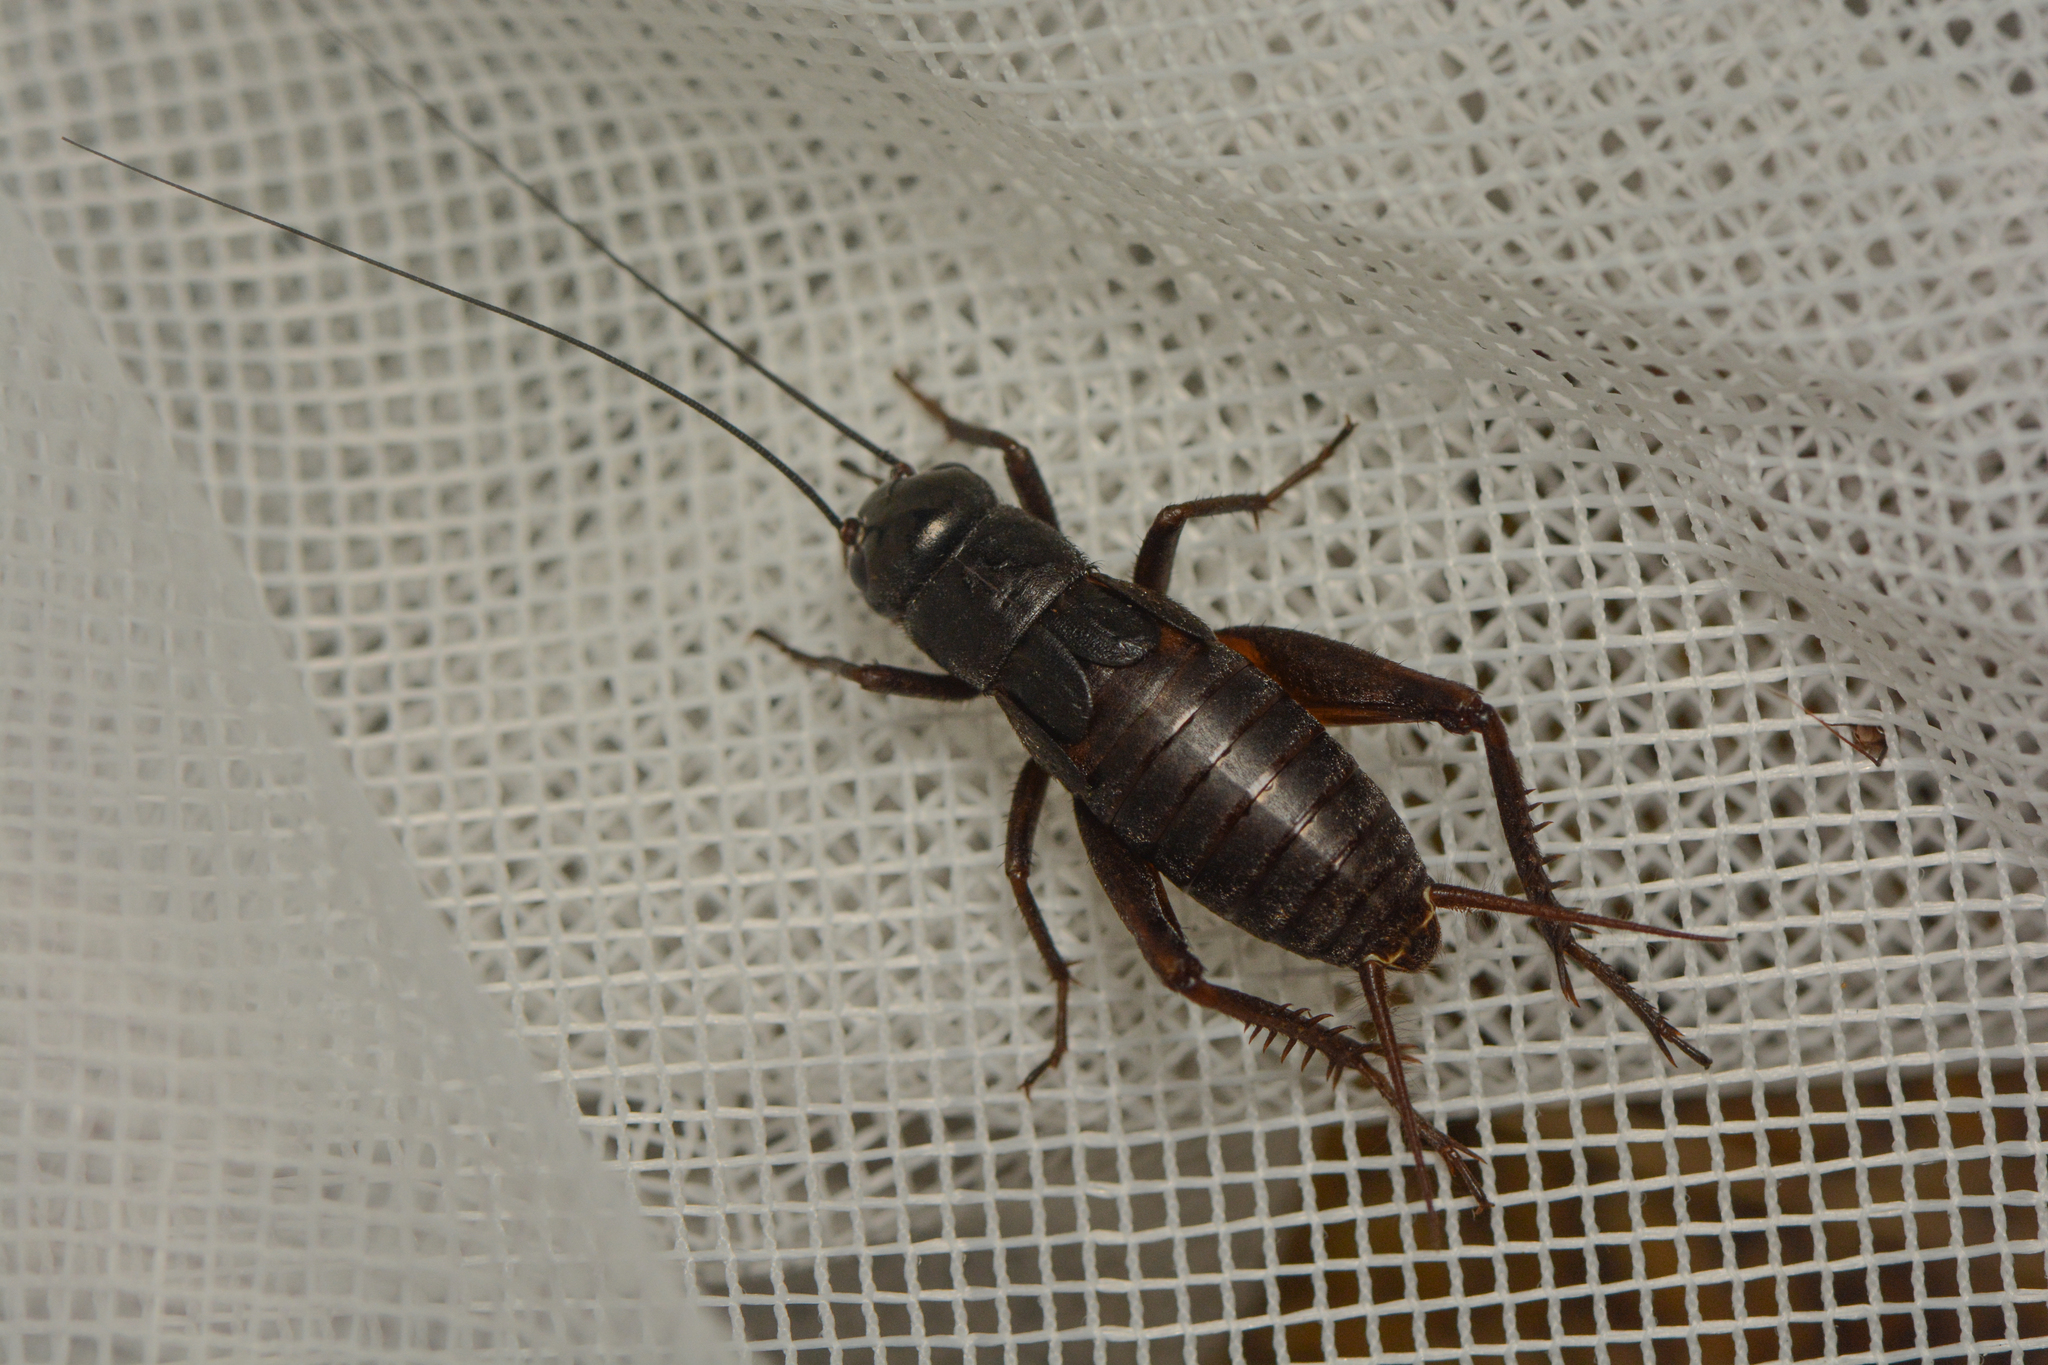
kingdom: Animalia
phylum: Arthropoda
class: Insecta
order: Orthoptera
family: Gryllidae
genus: Gryllus
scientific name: Gryllus pennsylvanicus
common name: Fall field cricket
